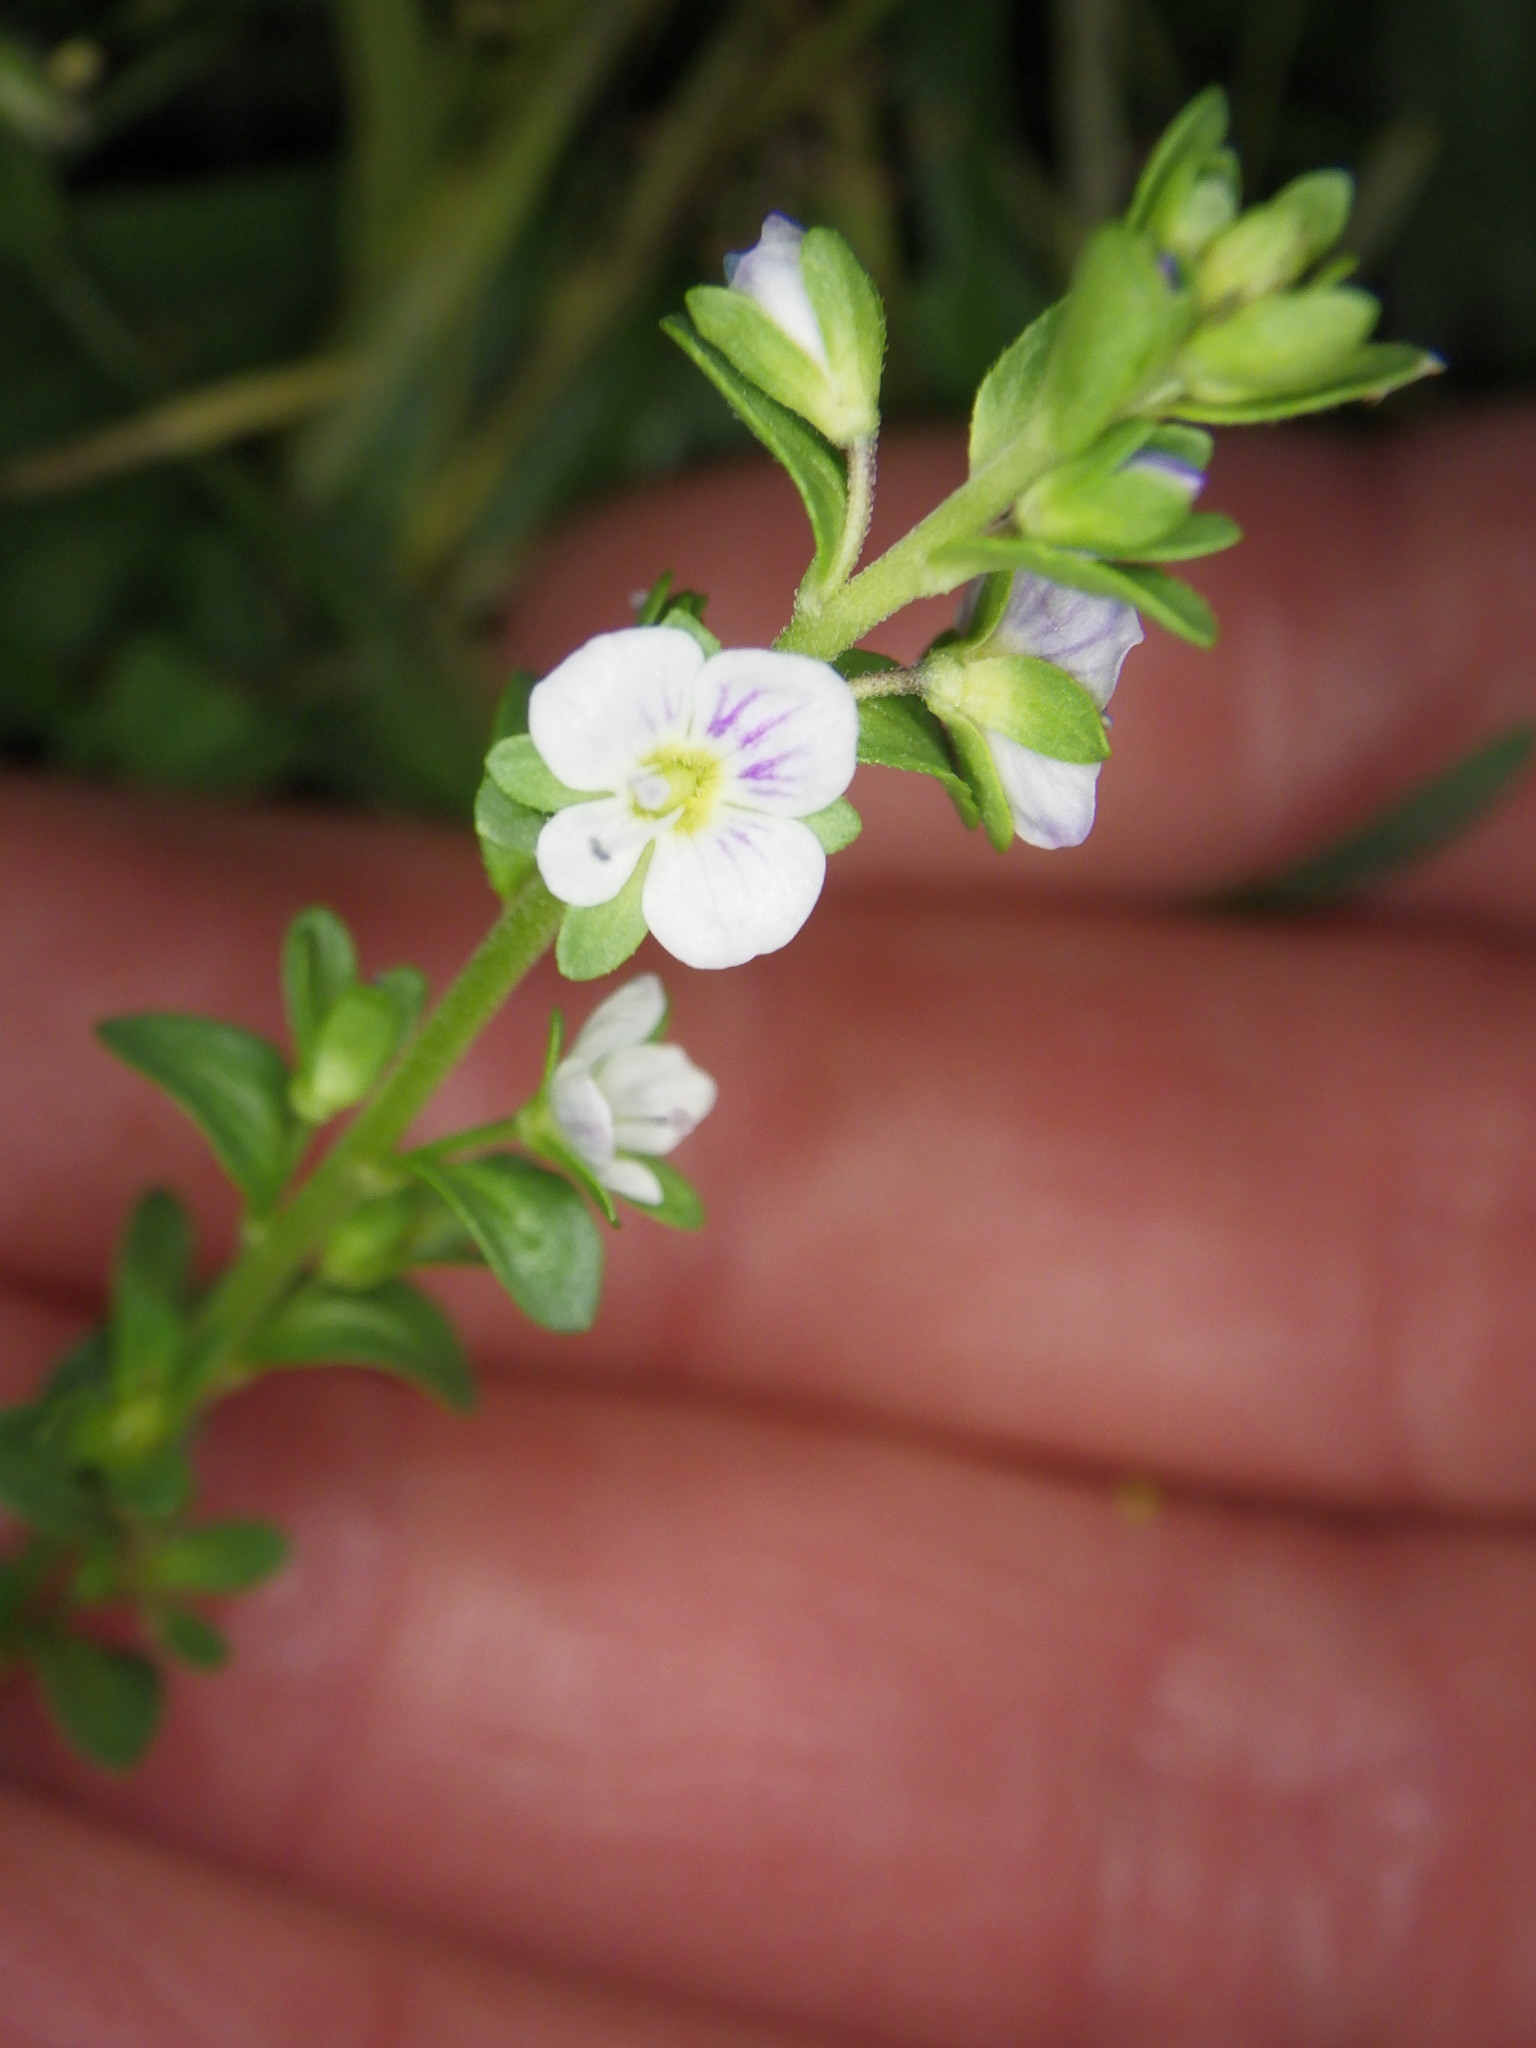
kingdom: Plantae
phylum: Tracheophyta
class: Magnoliopsida
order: Lamiales
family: Plantaginaceae
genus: Veronica
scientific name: Veronica serpyllifolia
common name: Thyme-leaved speedwell
